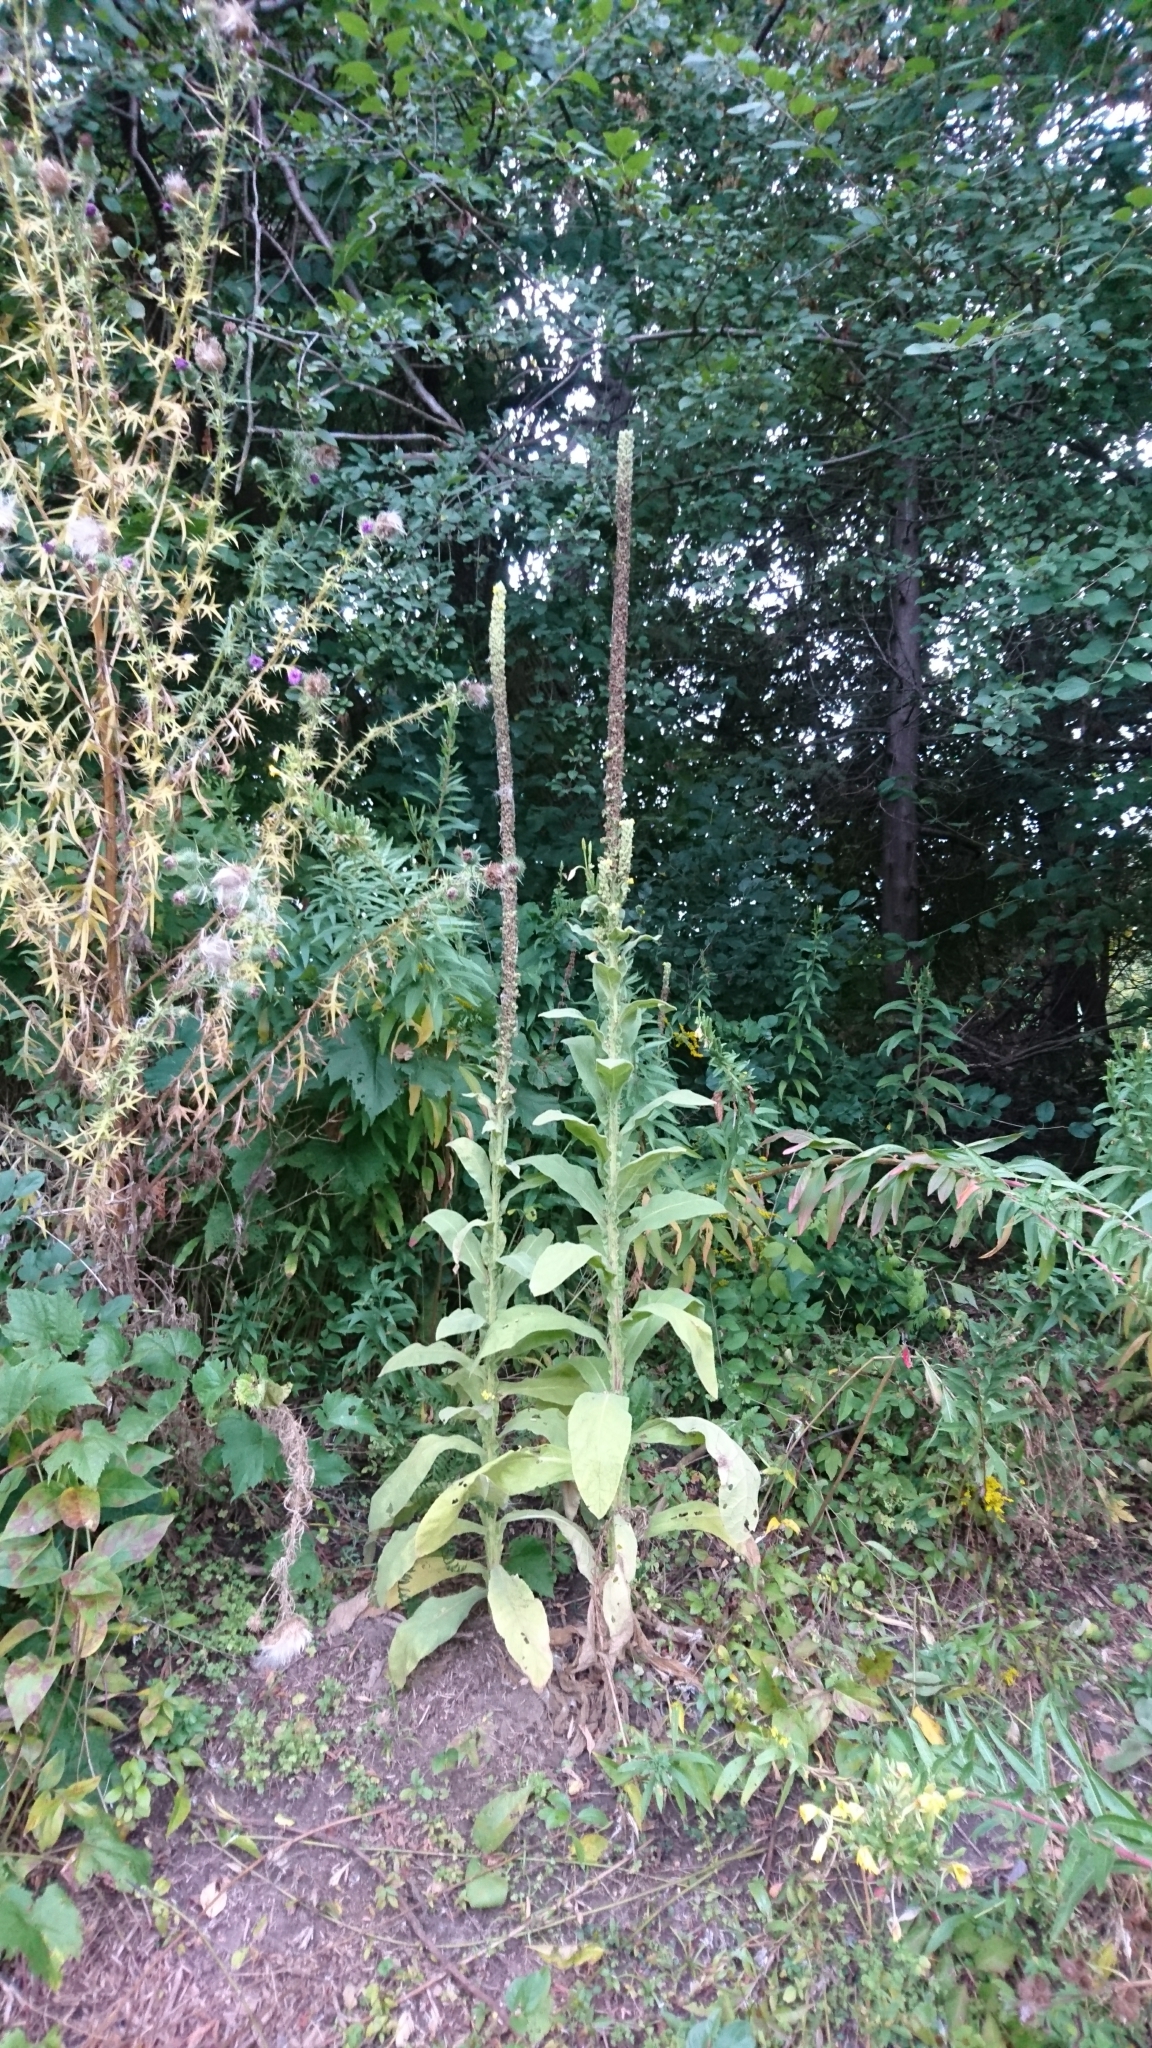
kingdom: Plantae
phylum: Tracheophyta
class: Magnoliopsida
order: Lamiales
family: Scrophulariaceae
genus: Verbascum
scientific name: Verbascum thapsus
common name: Common mullein
